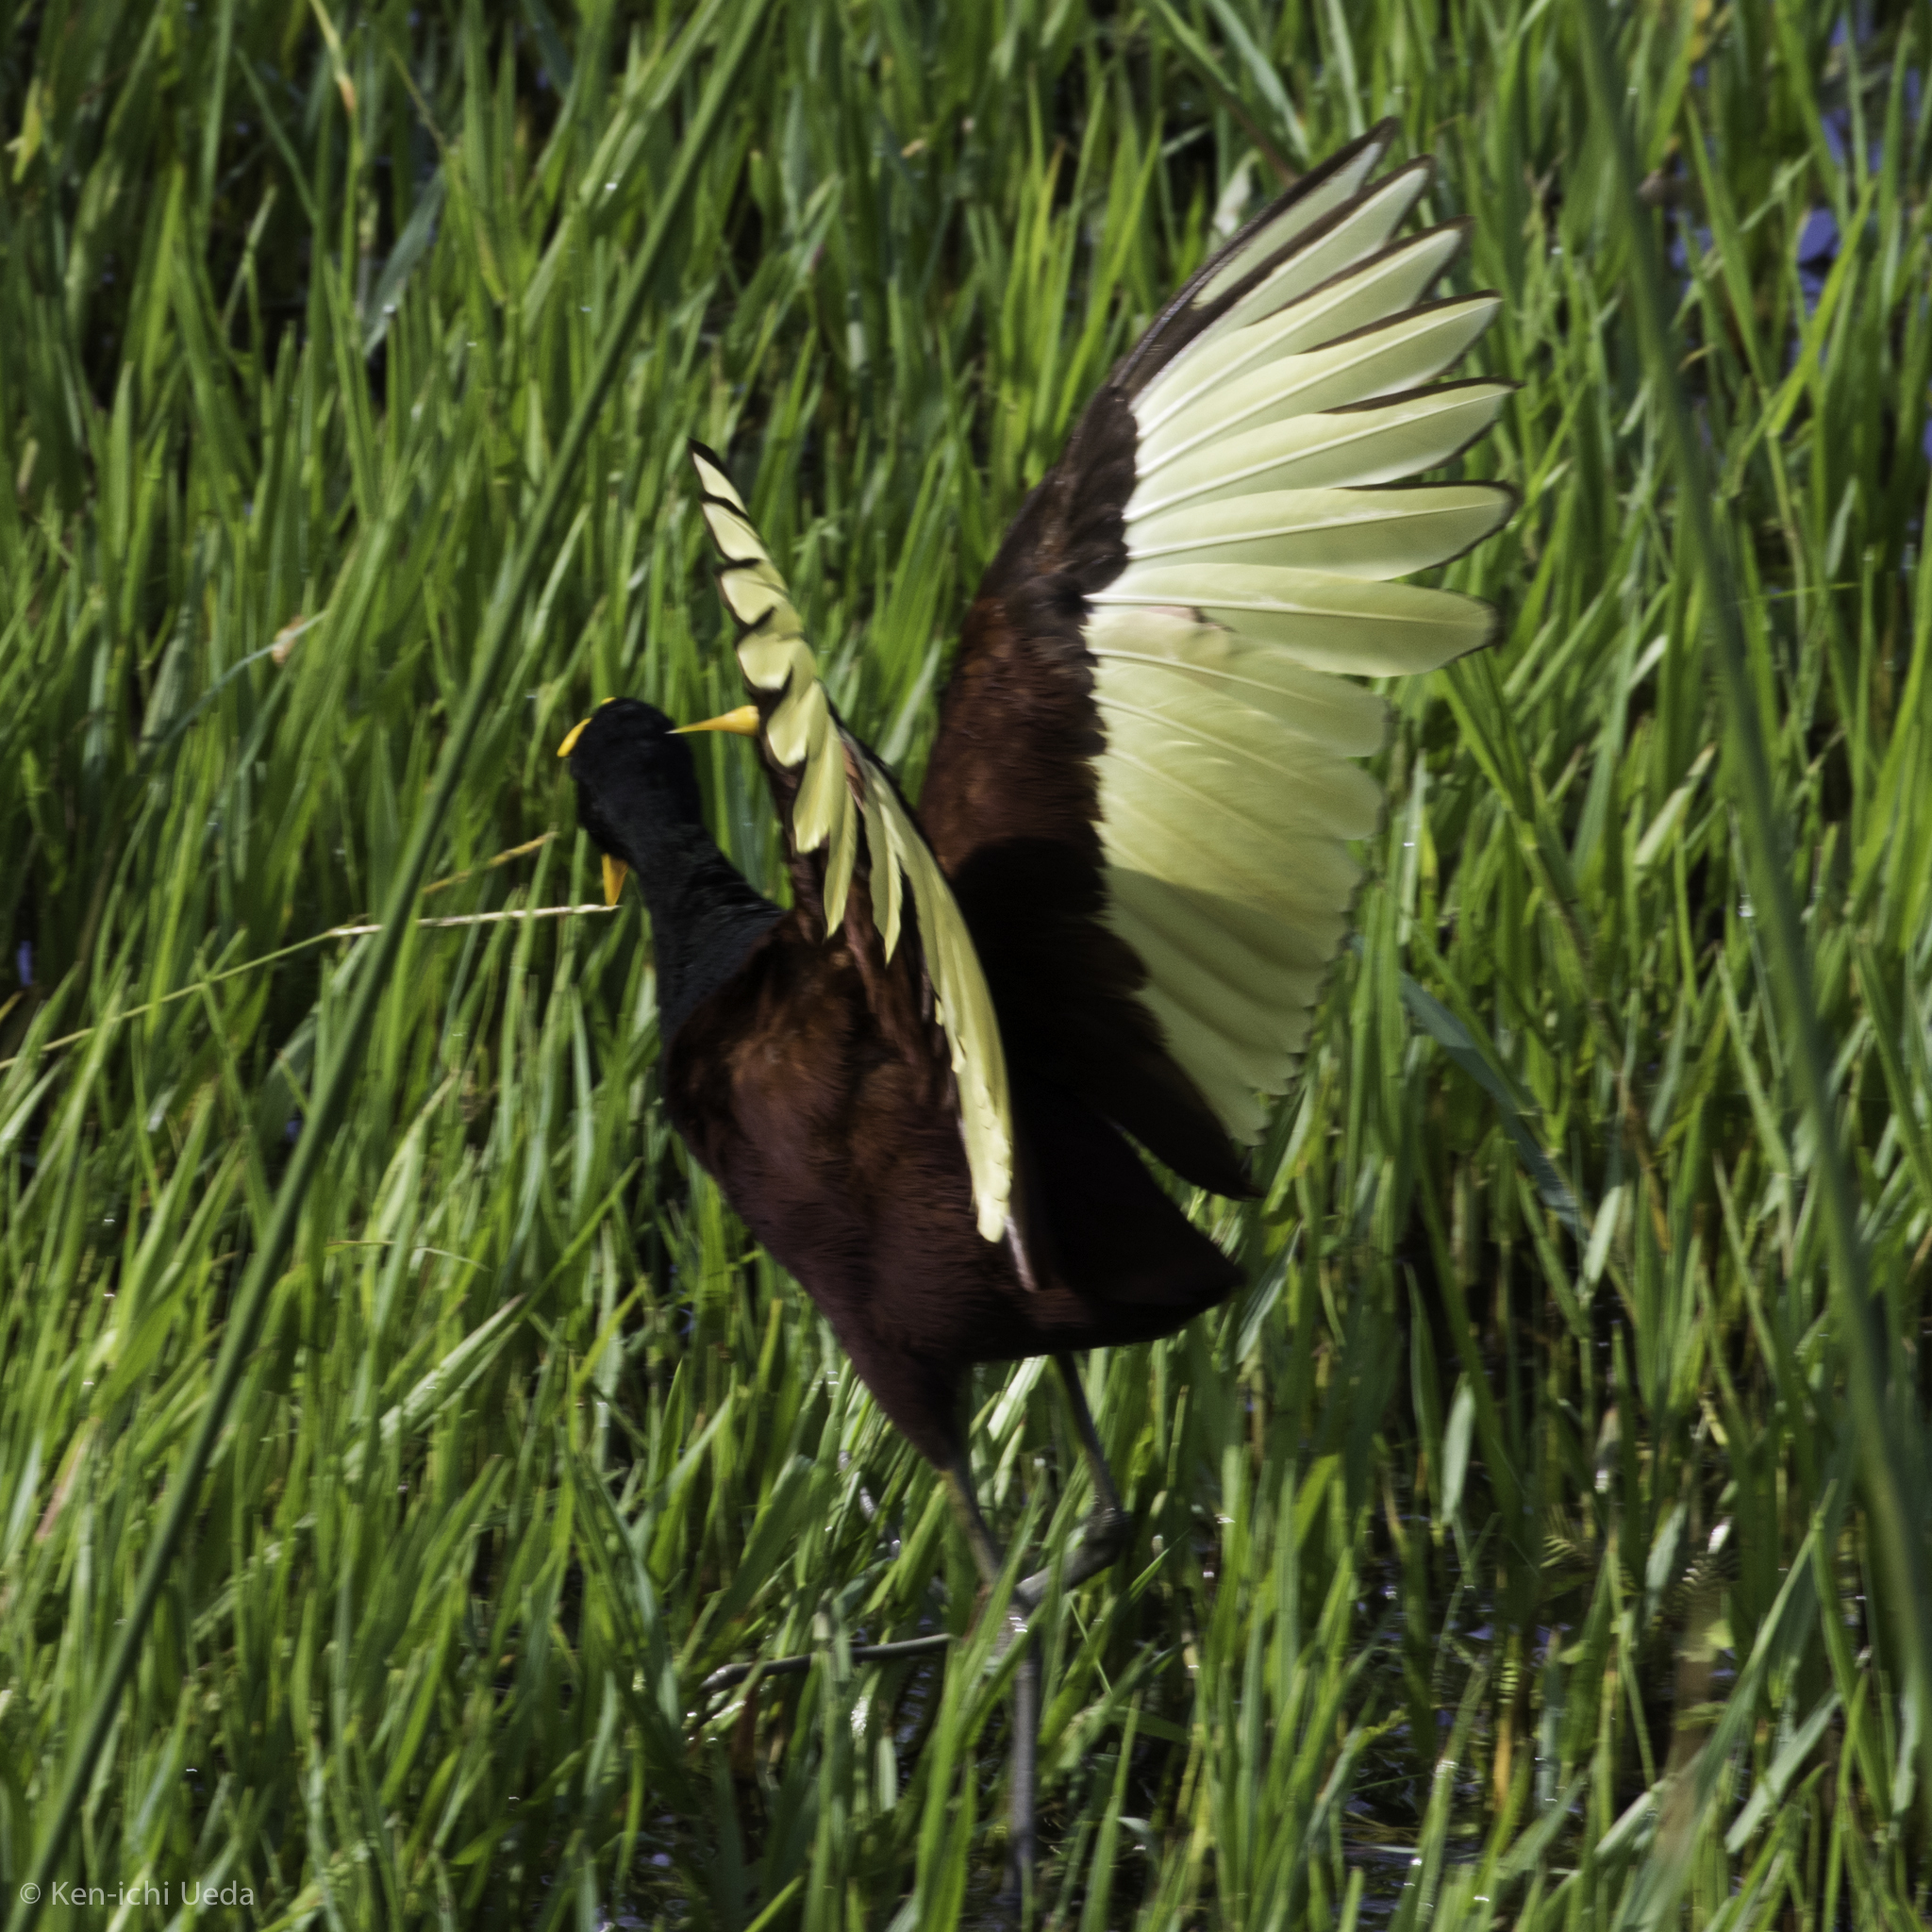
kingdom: Animalia
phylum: Chordata
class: Aves
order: Charadriiformes
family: Jacanidae
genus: Jacana
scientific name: Jacana spinosa
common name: Northern jacana
